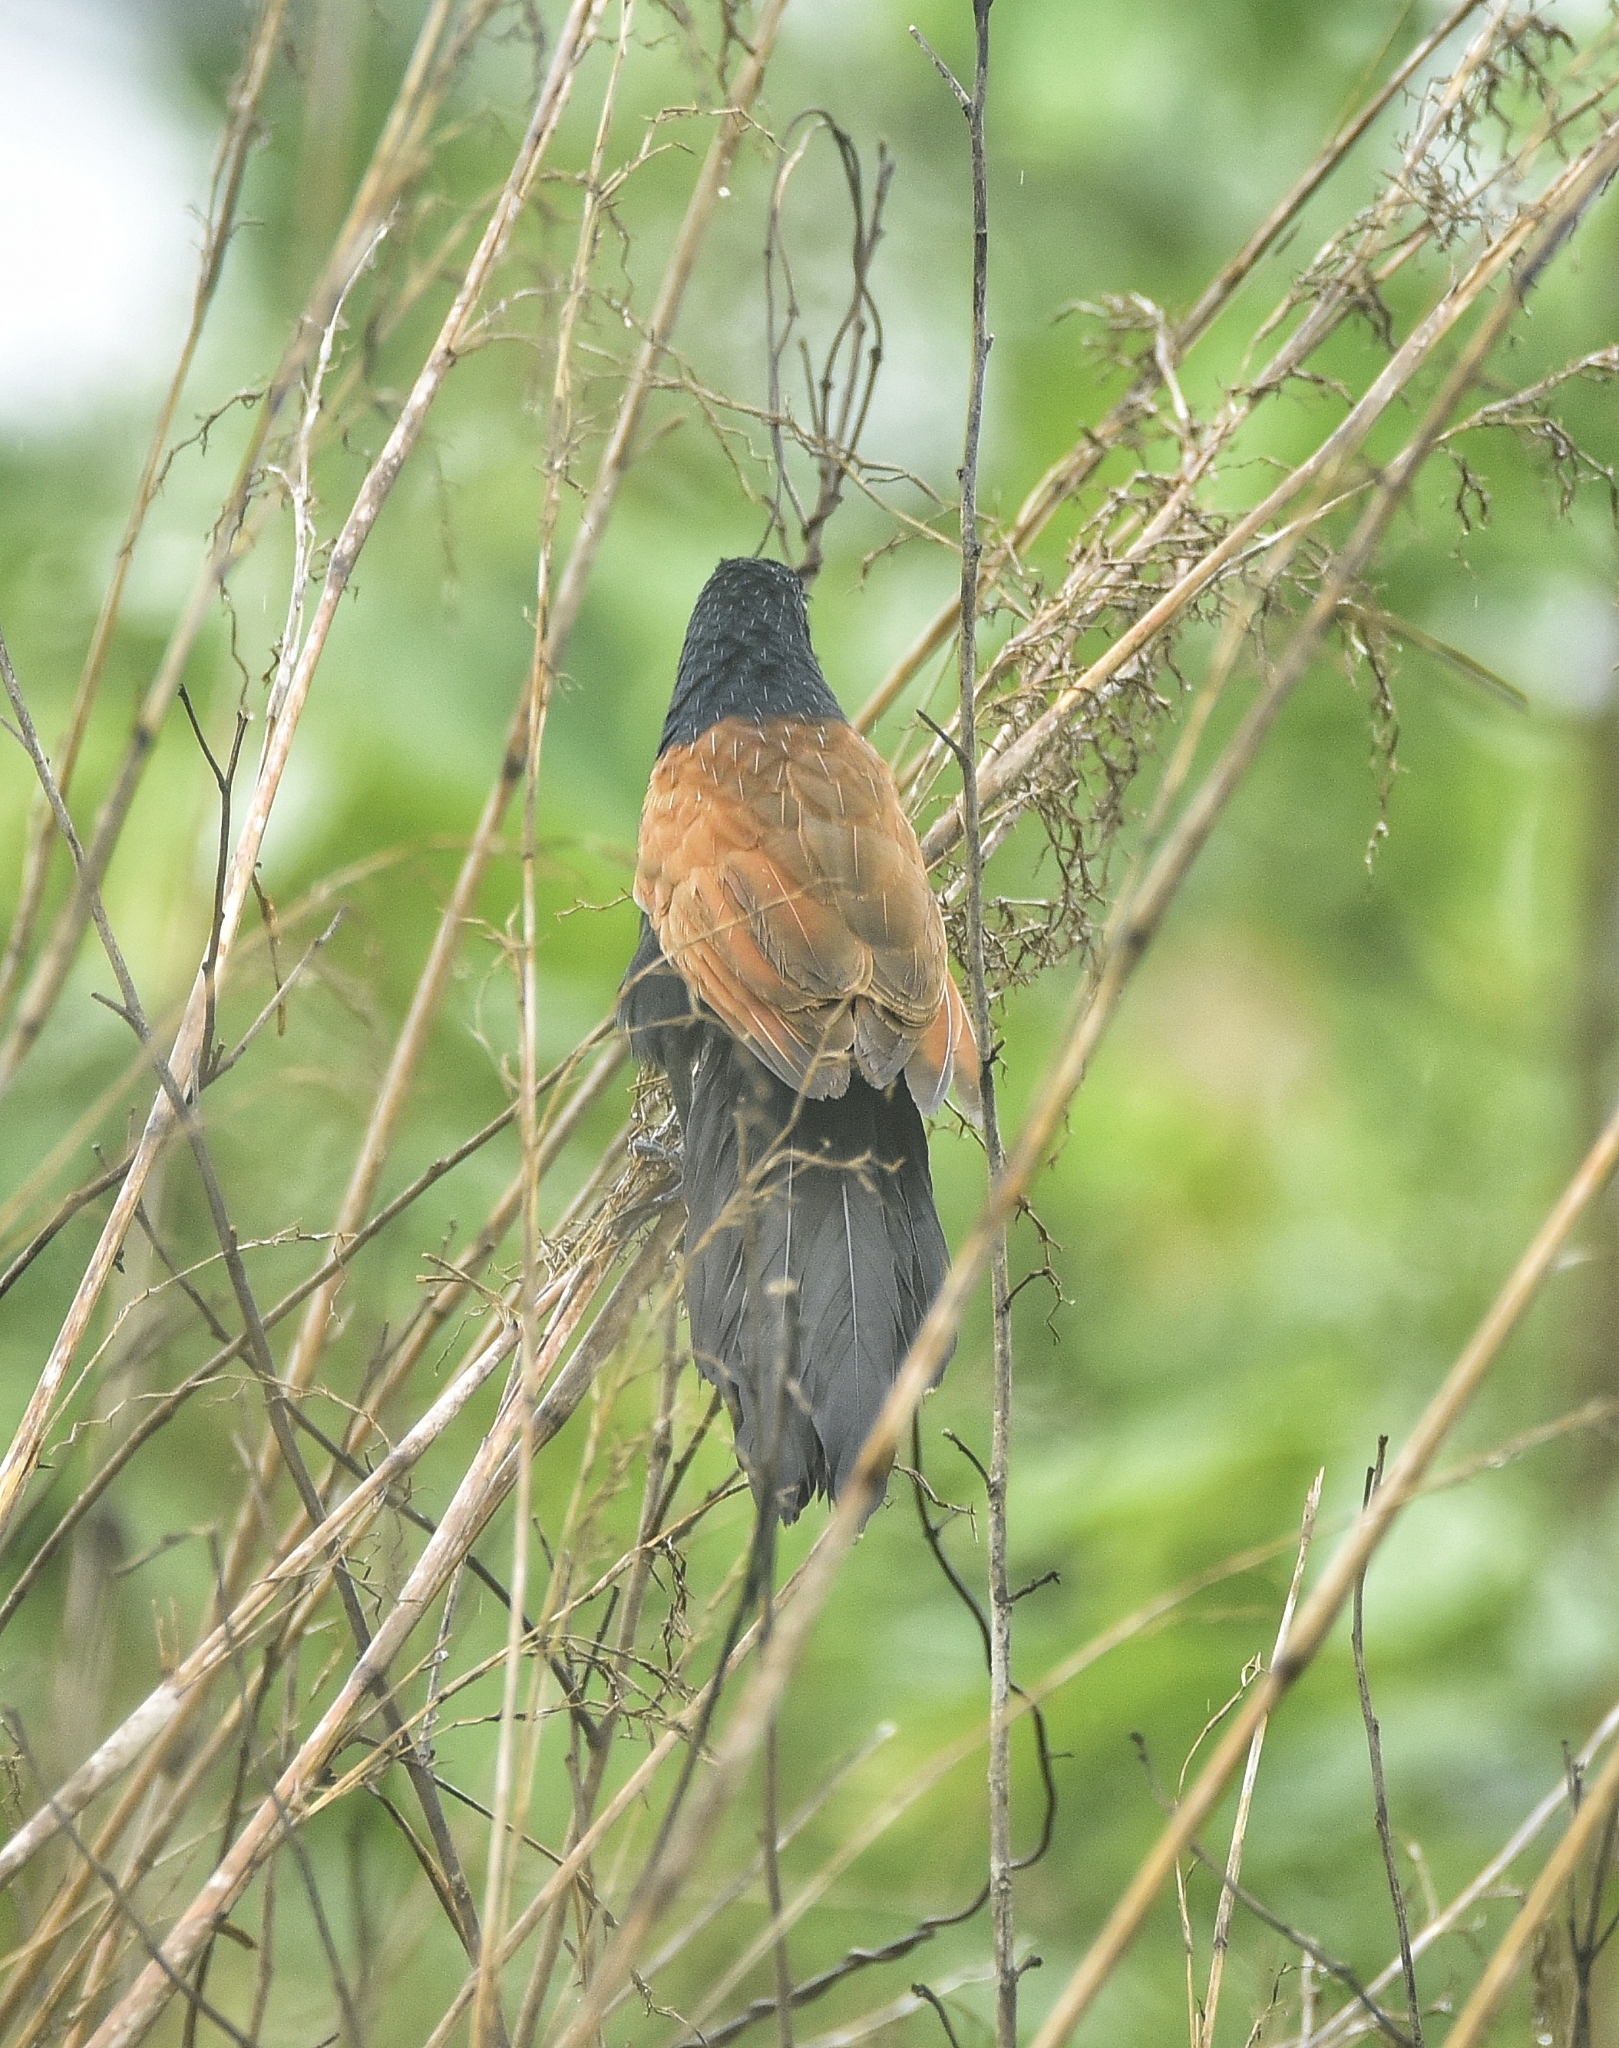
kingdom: Animalia
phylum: Chordata
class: Aves
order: Cuculiformes
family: Cuculidae
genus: Centropus
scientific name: Centropus bengalensis
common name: Lesser coucal
